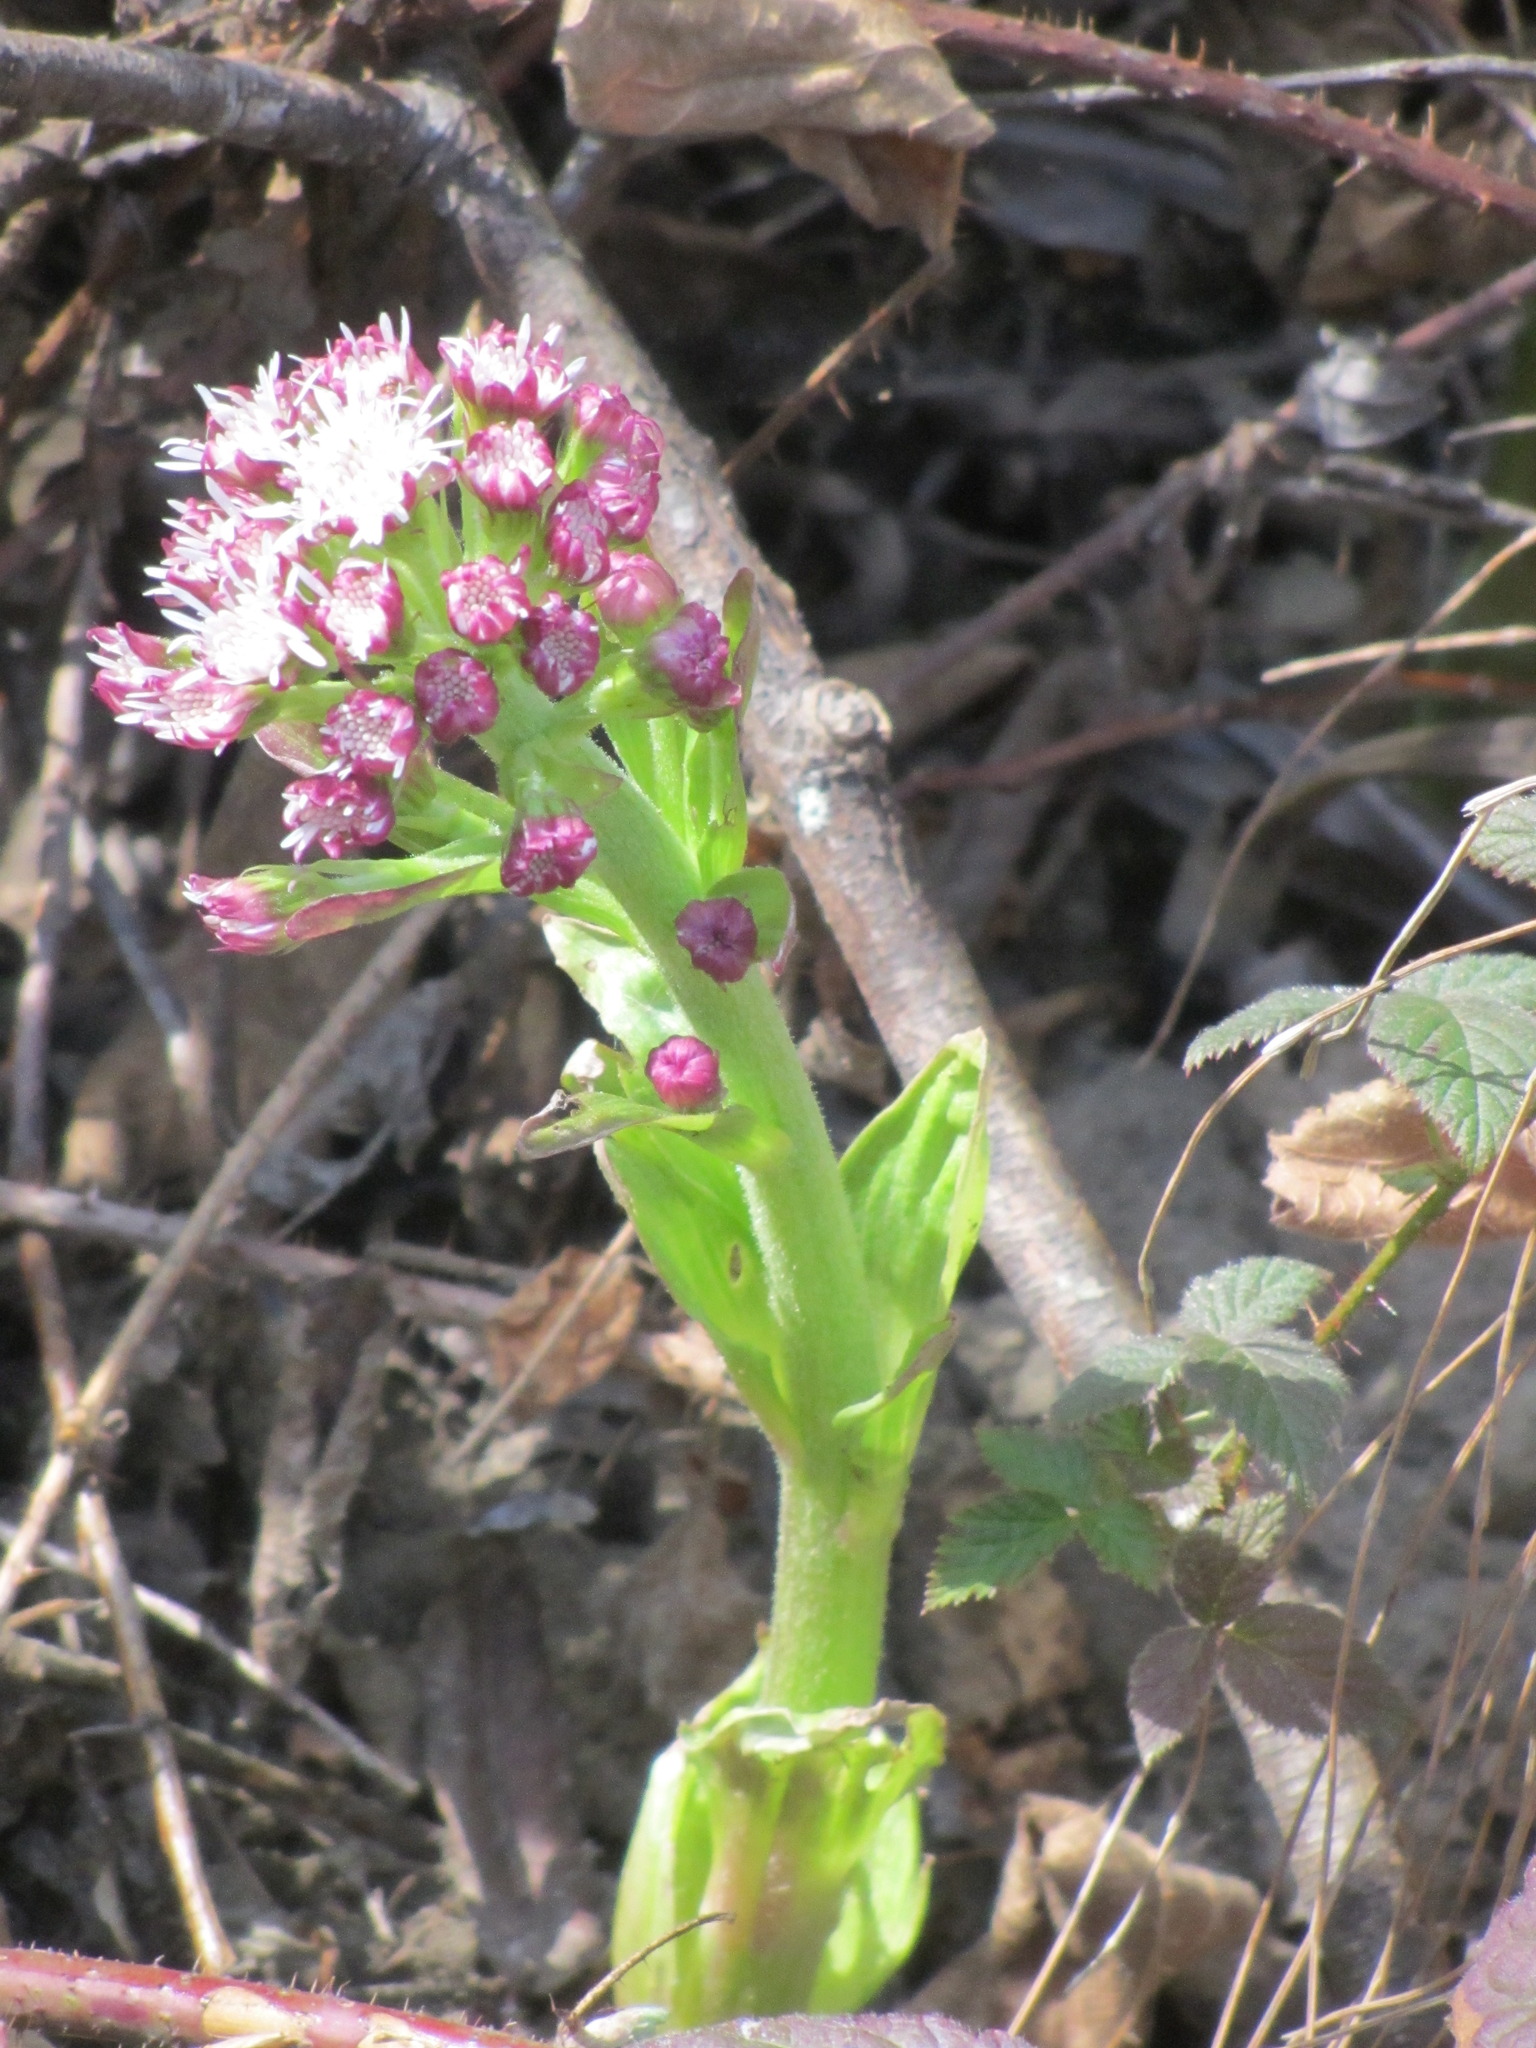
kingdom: Plantae
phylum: Tracheophyta
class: Magnoliopsida
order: Asterales
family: Asteraceae
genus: Petasites
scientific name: Petasites frigidus
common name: Arctic butterbur
